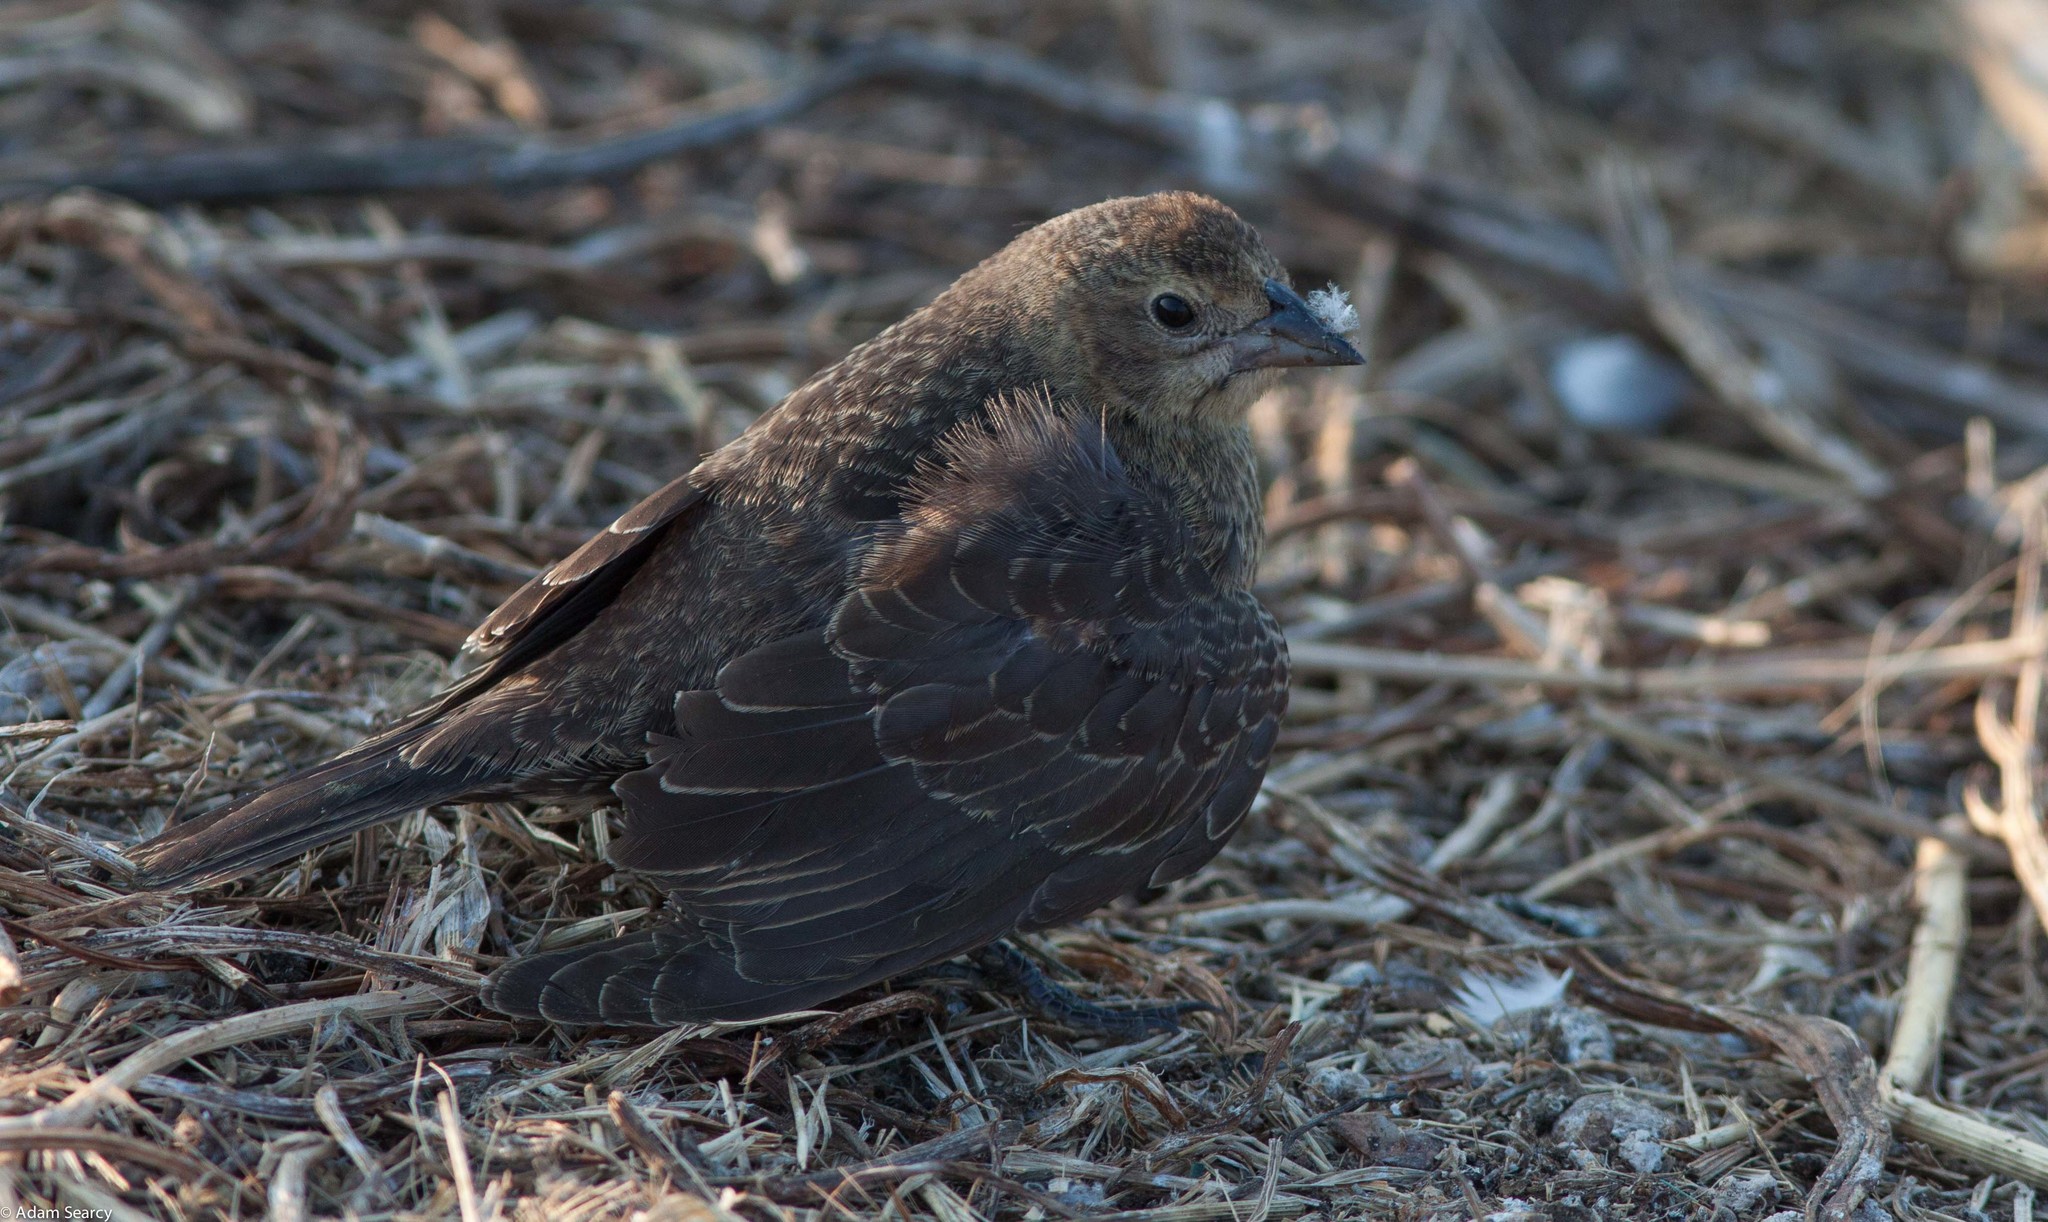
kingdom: Animalia
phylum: Chordata
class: Aves
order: Passeriformes
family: Icteridae
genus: Molothrus
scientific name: Molothrus ater
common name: Brown-headed cowbird
